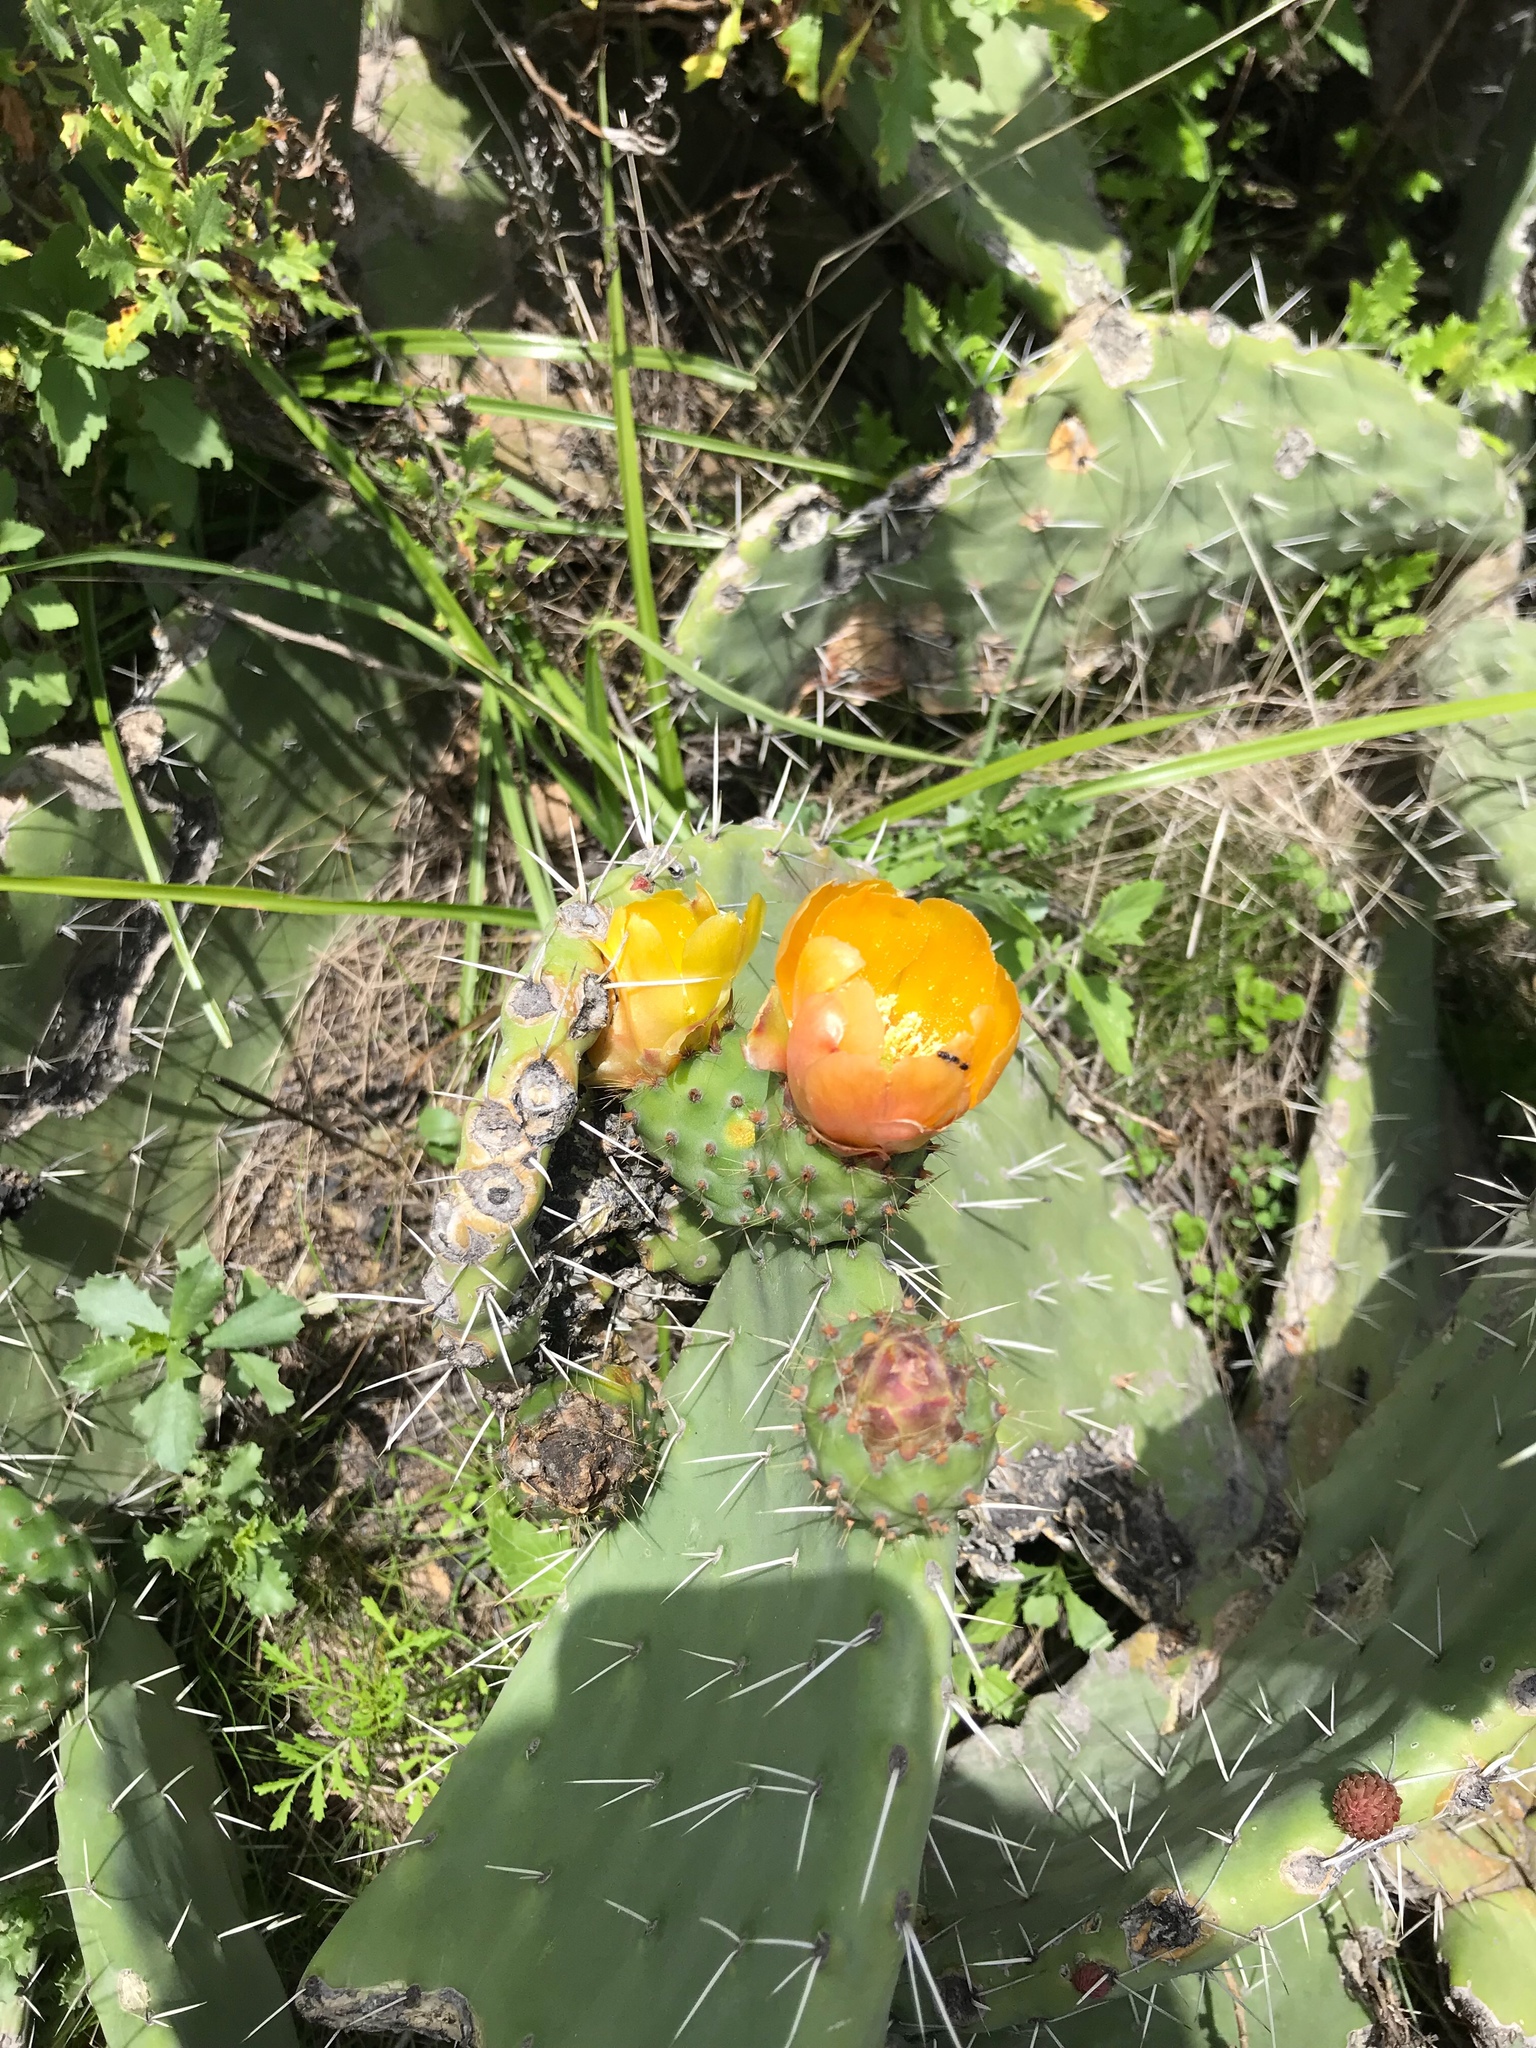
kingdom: Plantae
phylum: Tracheophyta
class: Magnoliopsida
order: Caryophyllales
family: Cactaceae
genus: Opuntia
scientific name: Opuntia ficus-indica
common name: Barbary fig
